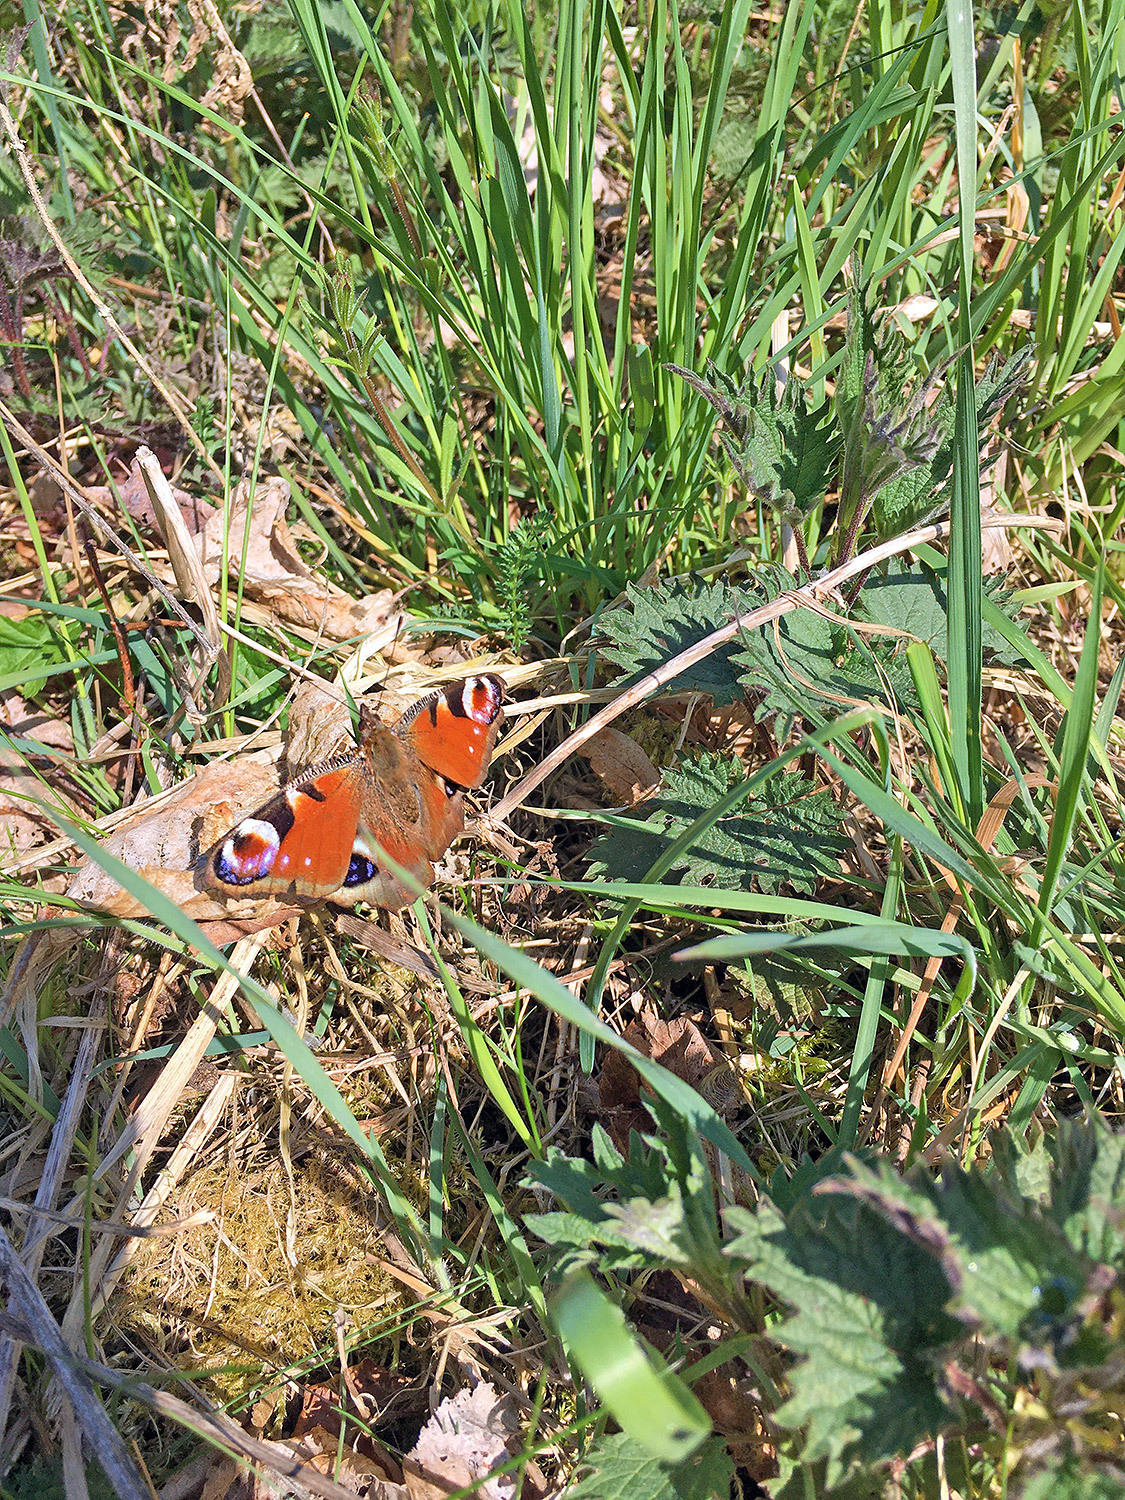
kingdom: Animalia
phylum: Arthropoda
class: Insecta
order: Lepidoptera
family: Nymphalidae
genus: Aglais
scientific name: Aglais io
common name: Peacock
